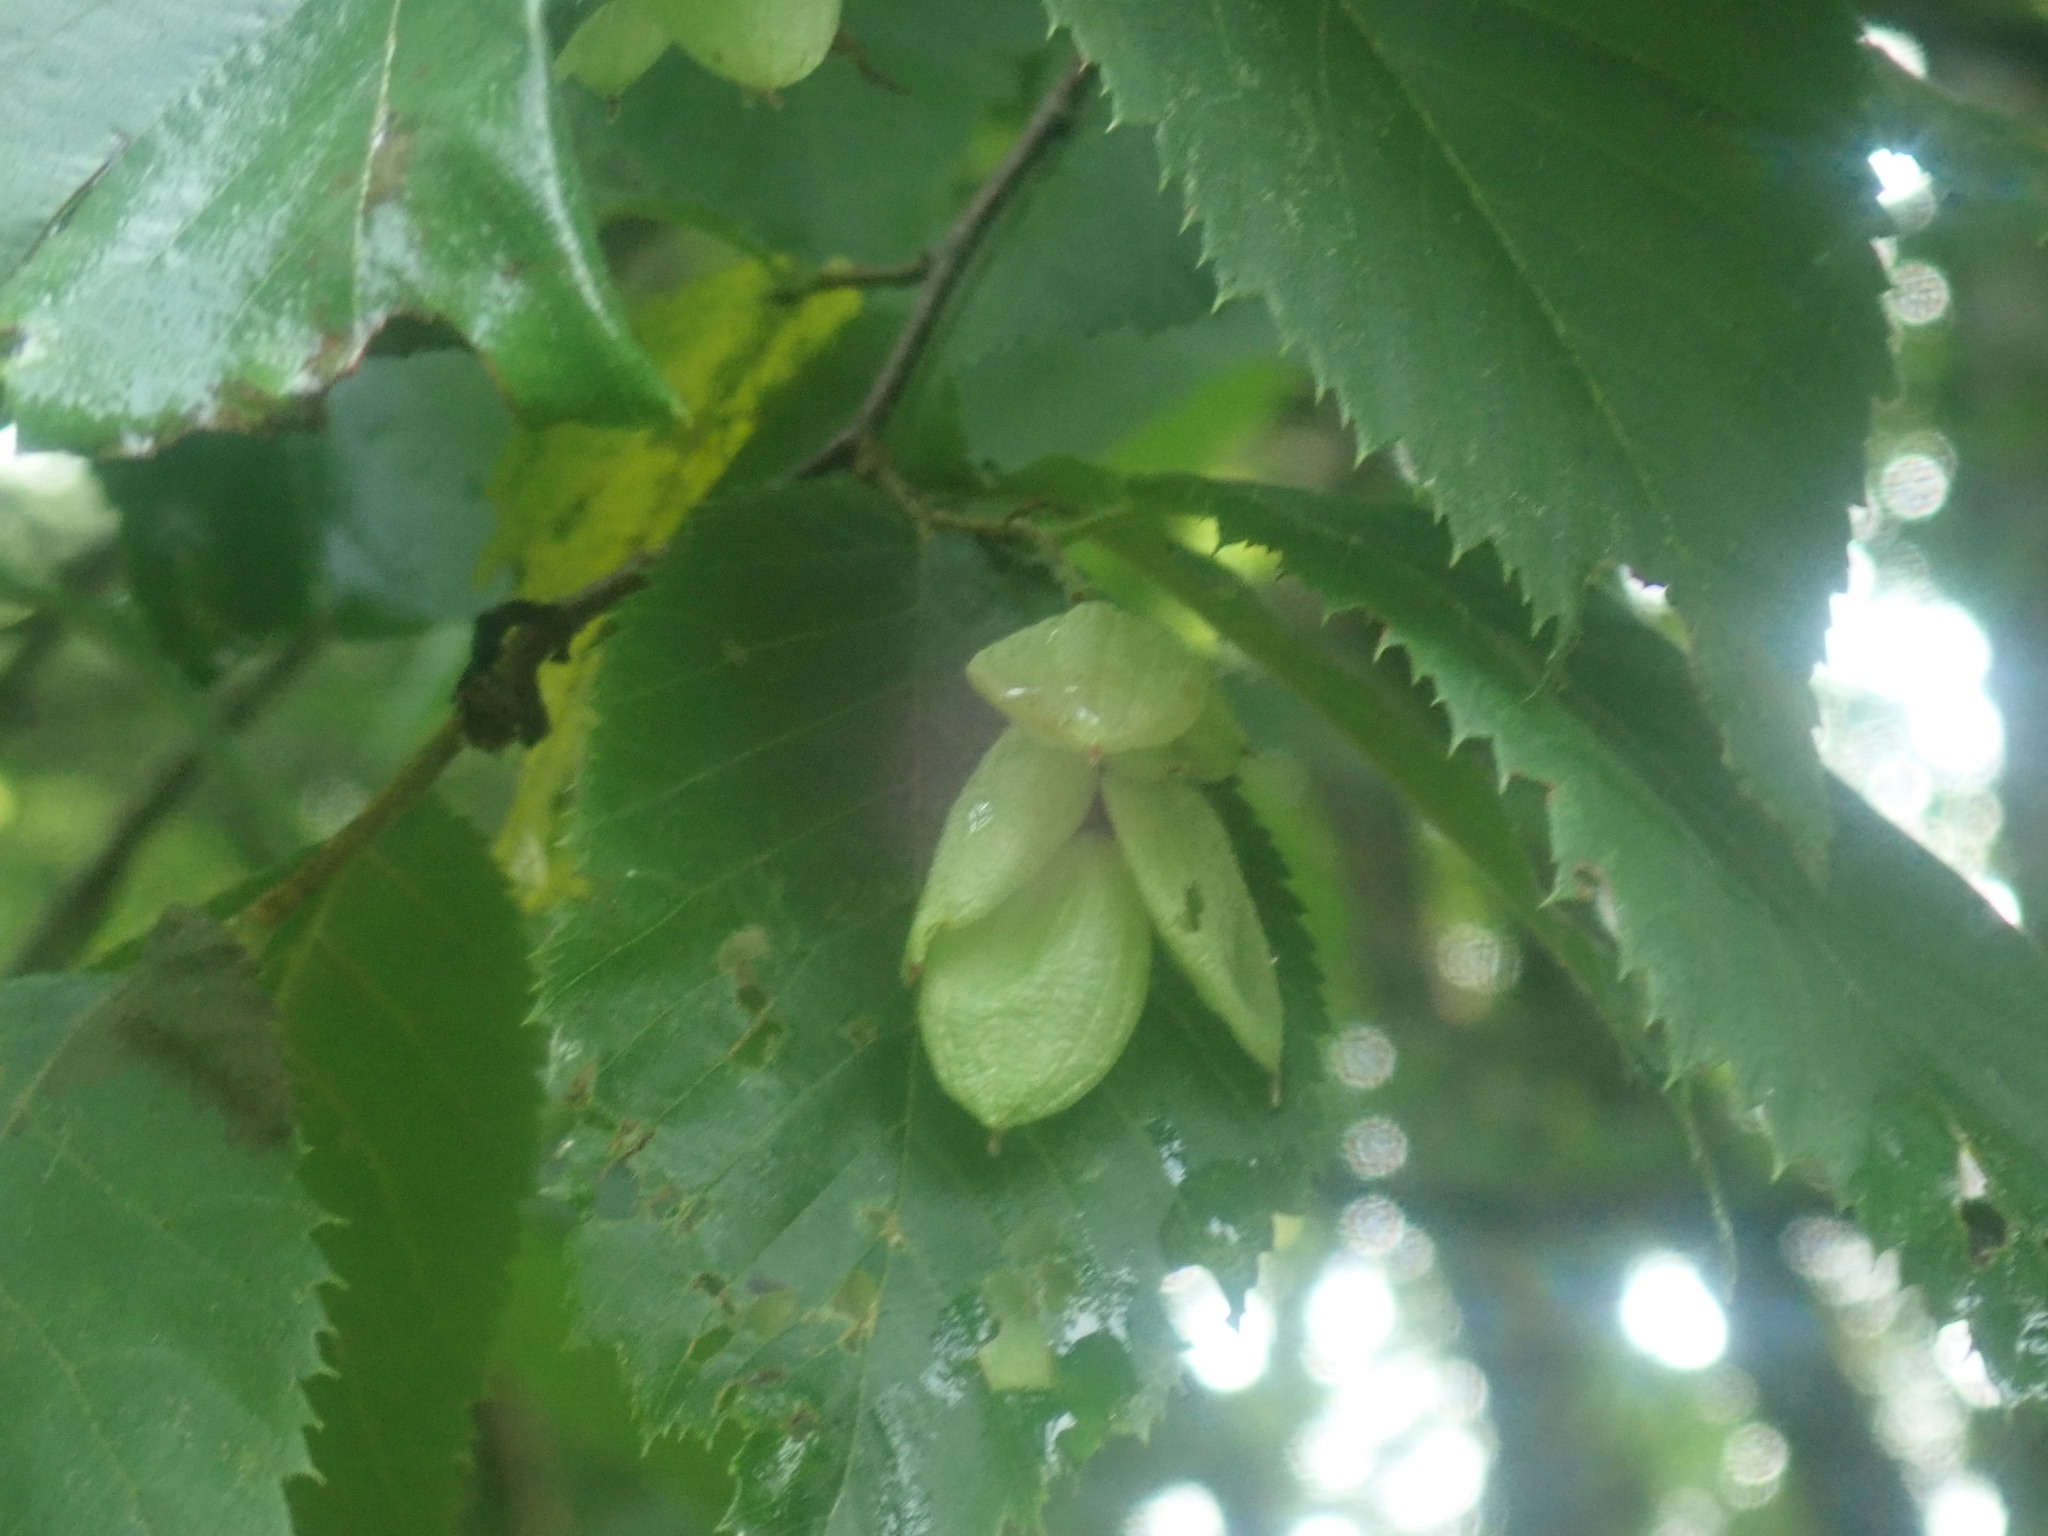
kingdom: Plantae
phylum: Tracheophyta
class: Magnoliopsida
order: Fagales
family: Betulaceae
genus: Ostrya
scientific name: Ostrya virginiana
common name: Ironwood
